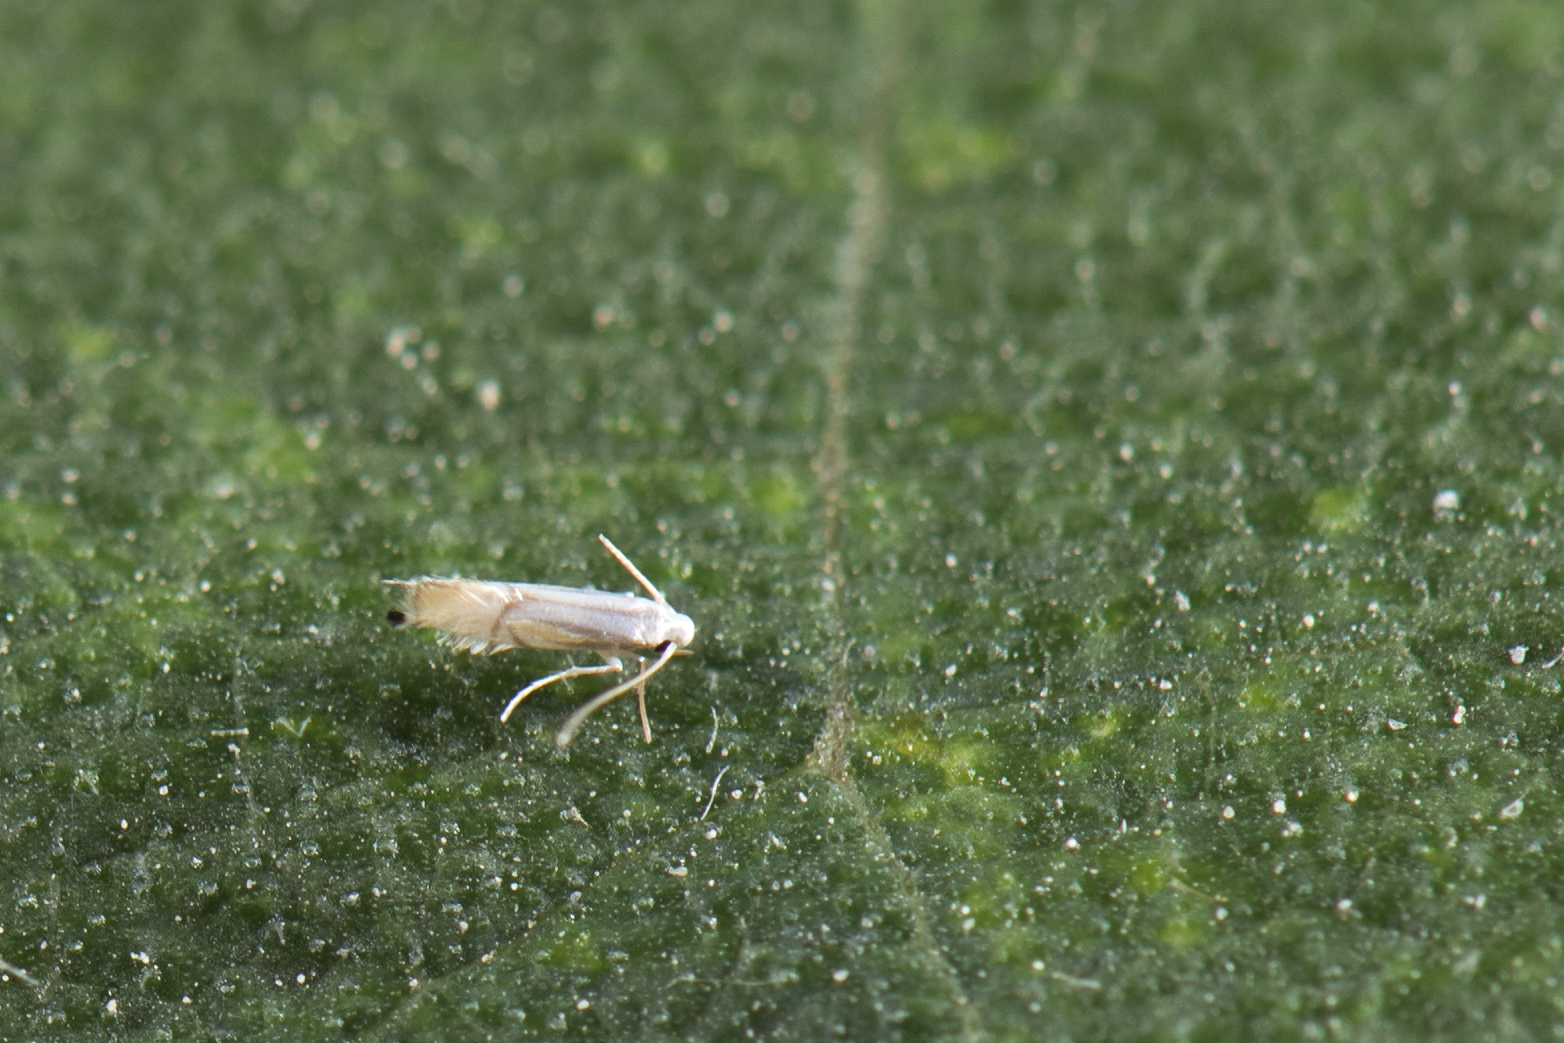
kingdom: Animalia
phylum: Arthropoda
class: Insecta
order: Lepidoptera
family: Gracillariidae
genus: Phyllocnistis
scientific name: Phyllocnistis citrella
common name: Citrus leafminer
